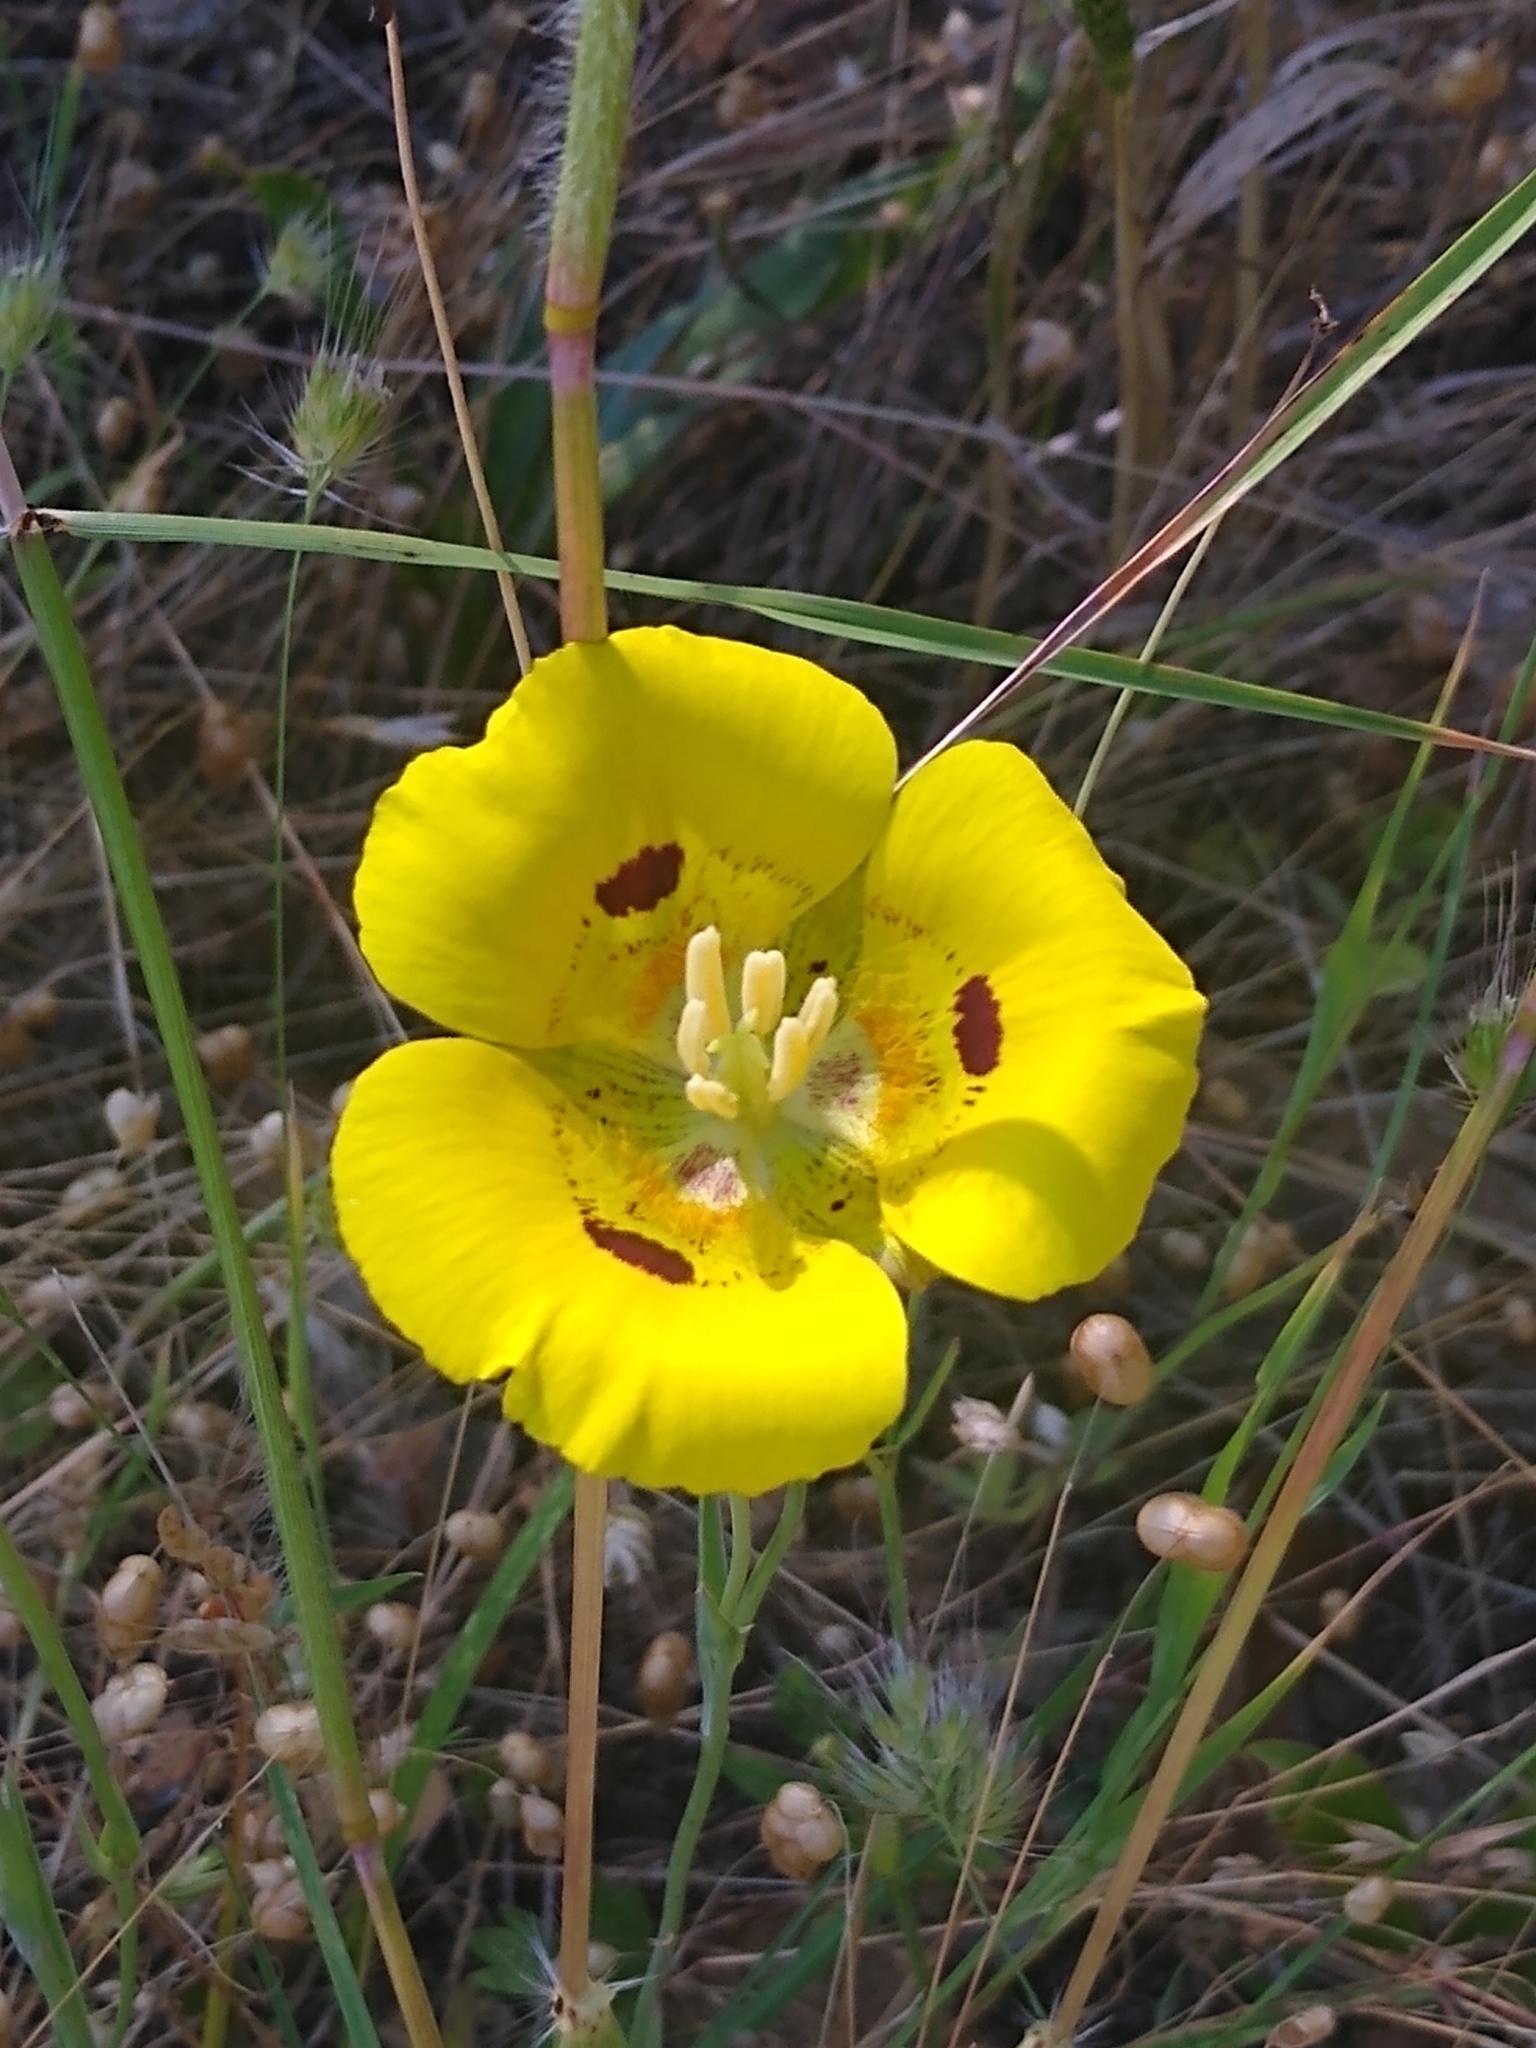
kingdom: Plantae
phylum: Tracheophyta
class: Liliopsida
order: Liliales
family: Liliaceae
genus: Calochortus
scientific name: Calochortus luteus
